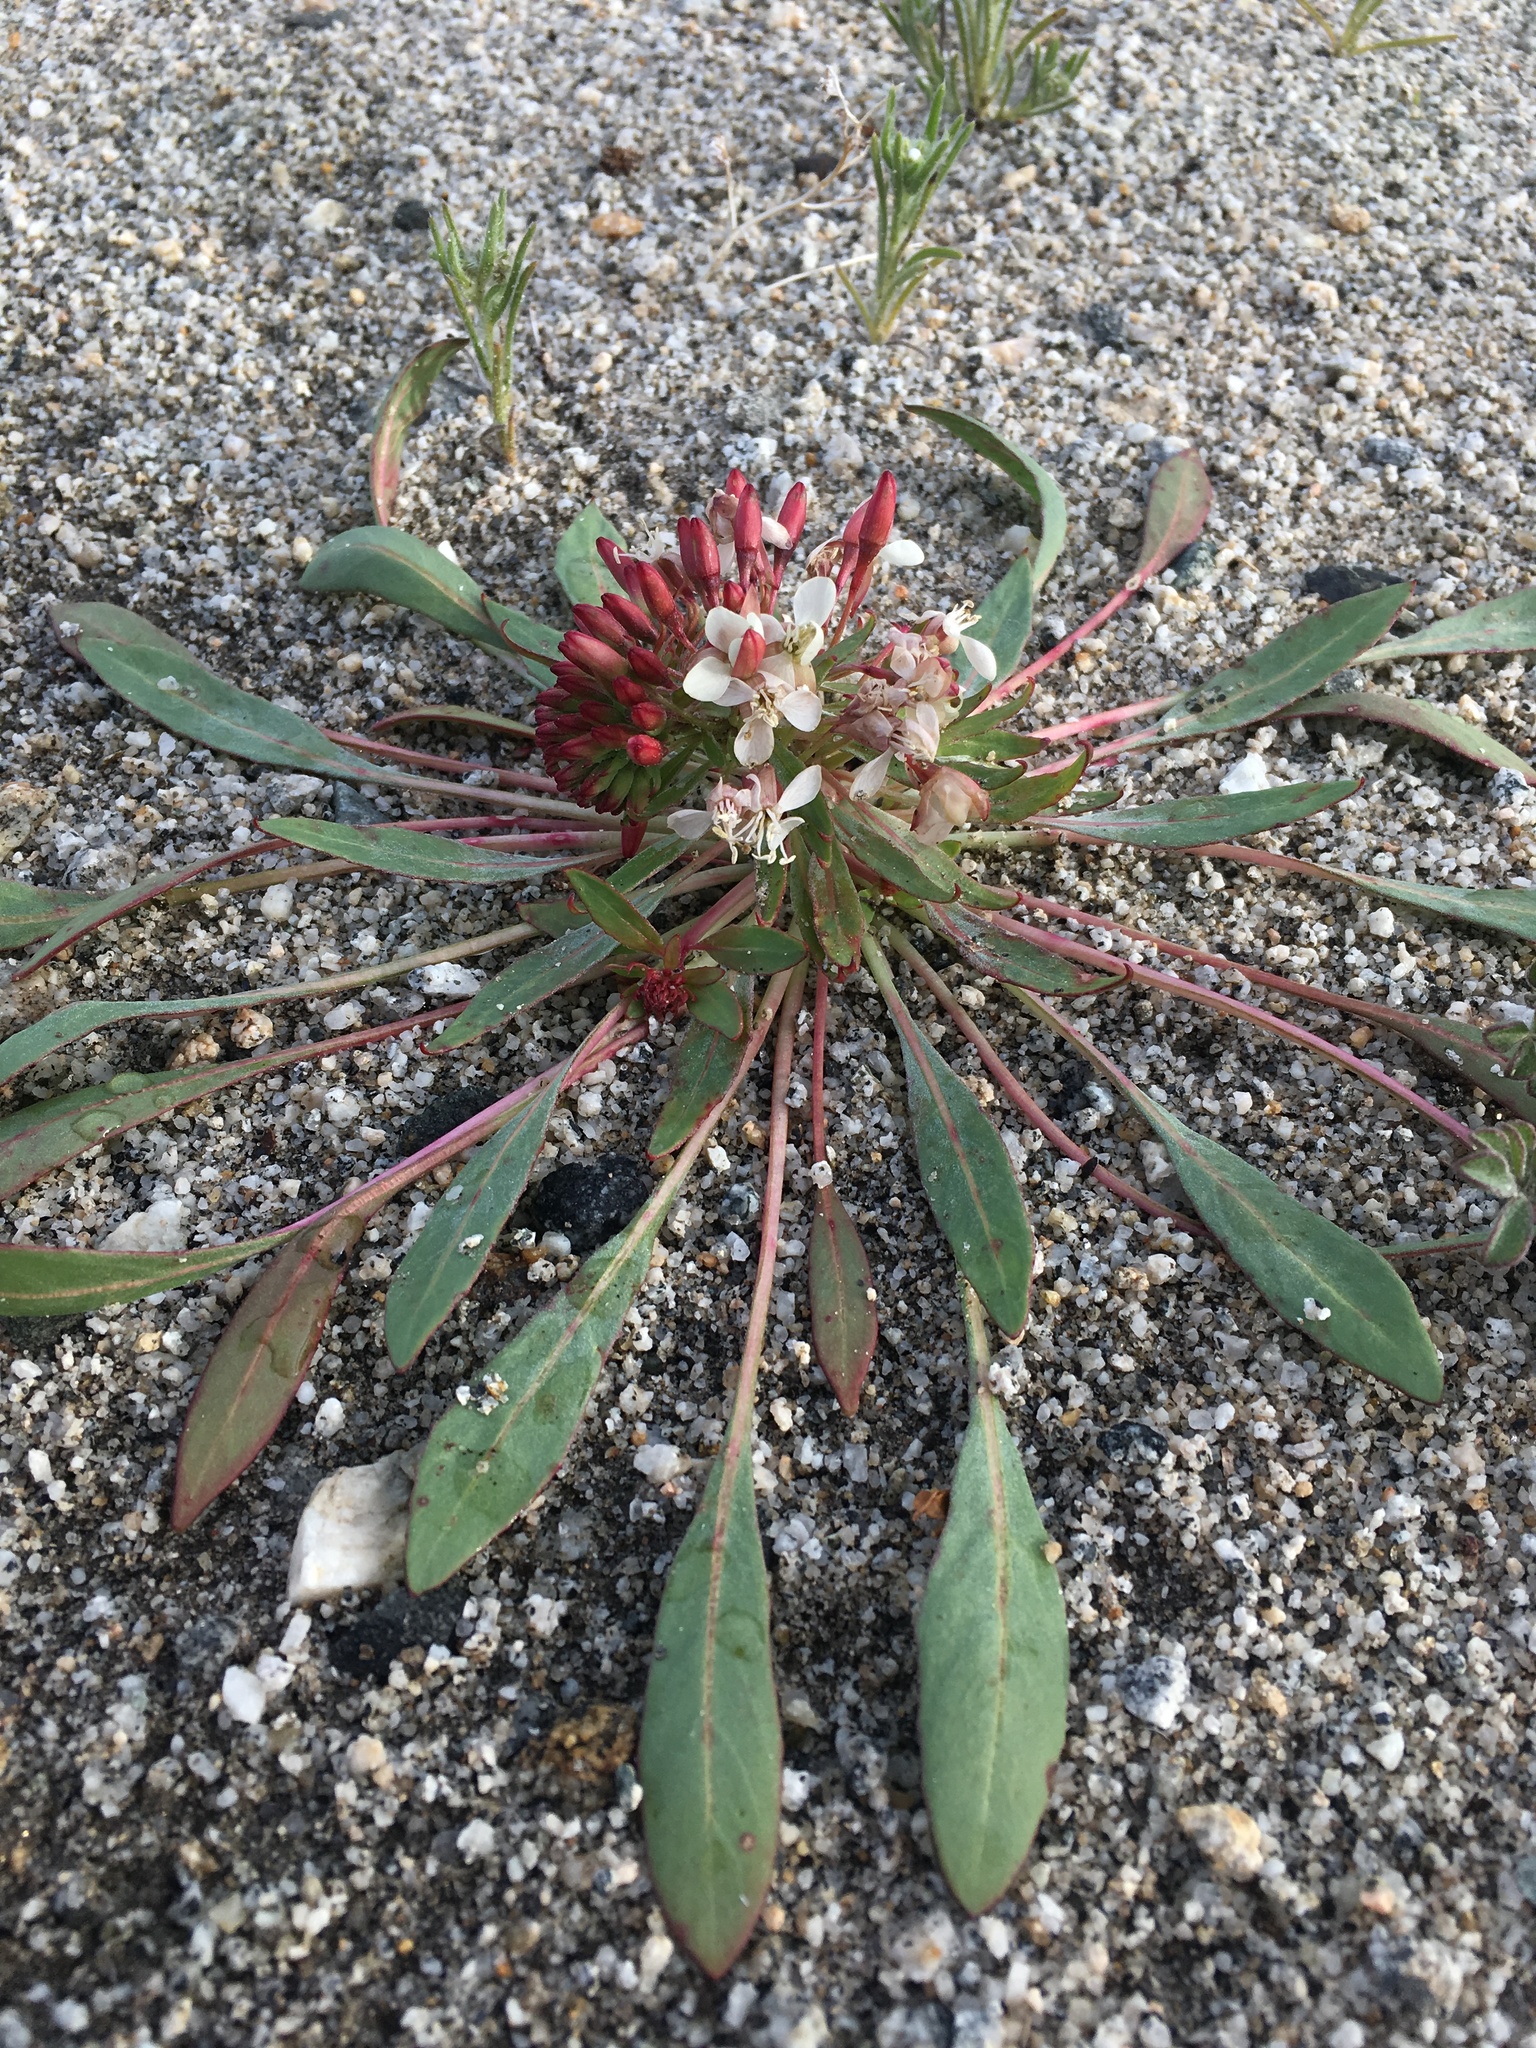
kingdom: Plantae
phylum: Tracheophyta
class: Magnoliopsida
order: Myrtales
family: Onagraceae
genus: Eremothera
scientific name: Eremothera boothii
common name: Booth's evening primrose
